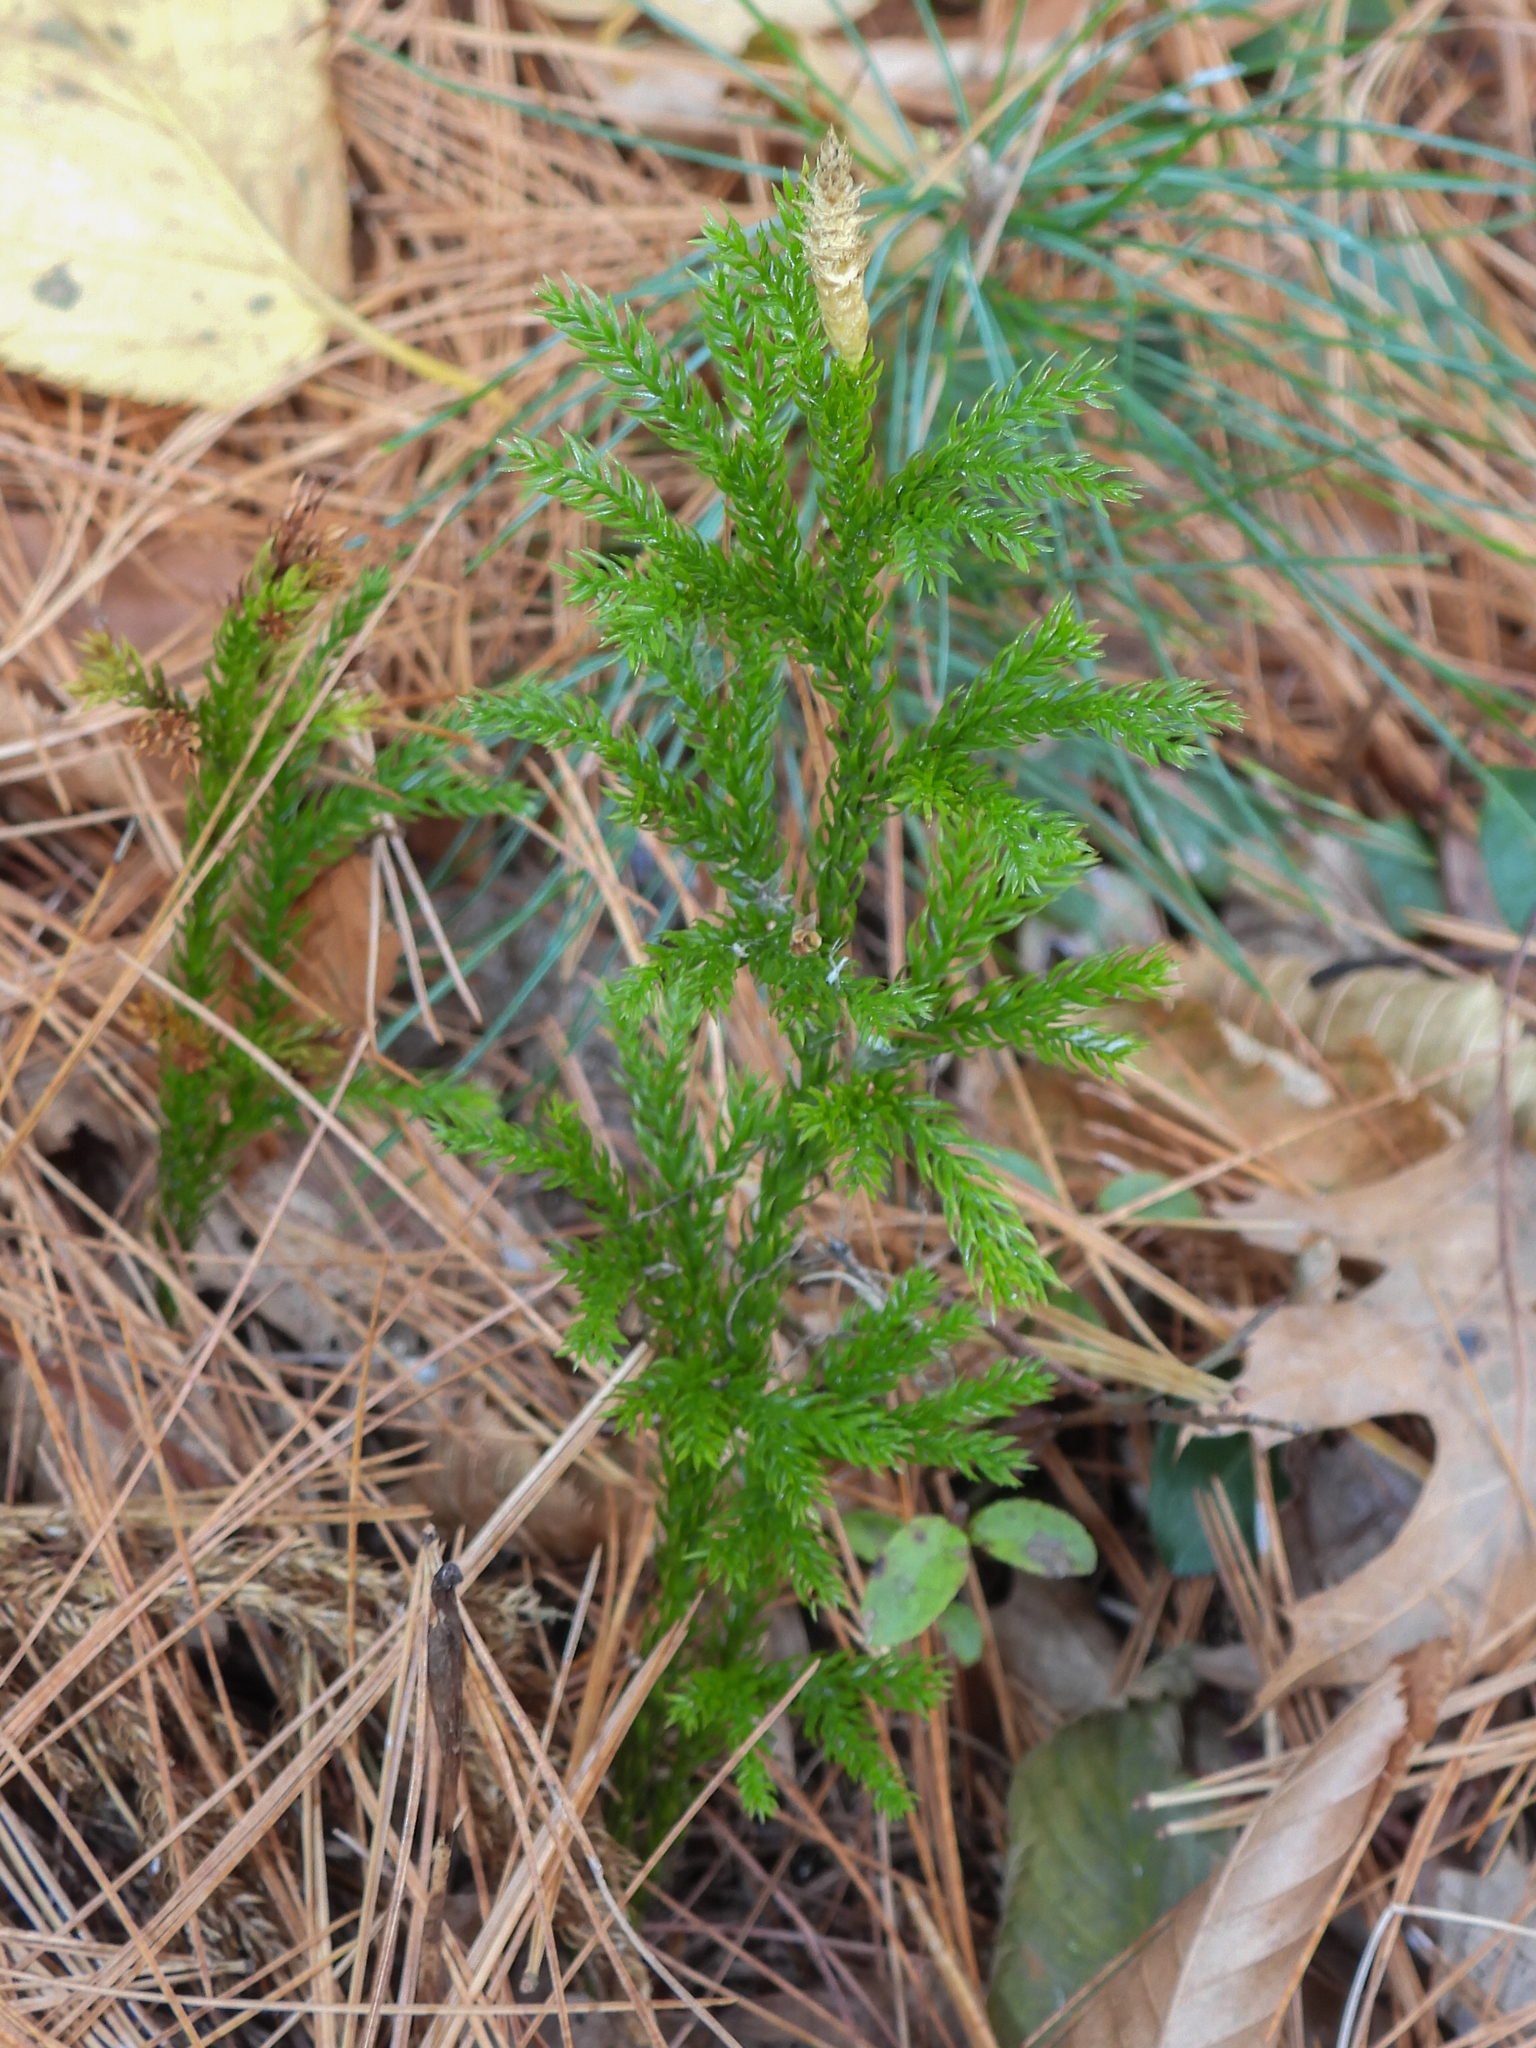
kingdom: Plantae
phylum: Tracheophyta
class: Lycopodiopsida
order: Lycopodiales
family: Lycopodiaceae
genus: Dendrolycopodium
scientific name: Dendrolycopodium hickeyi
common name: Hickey's clubmoss
